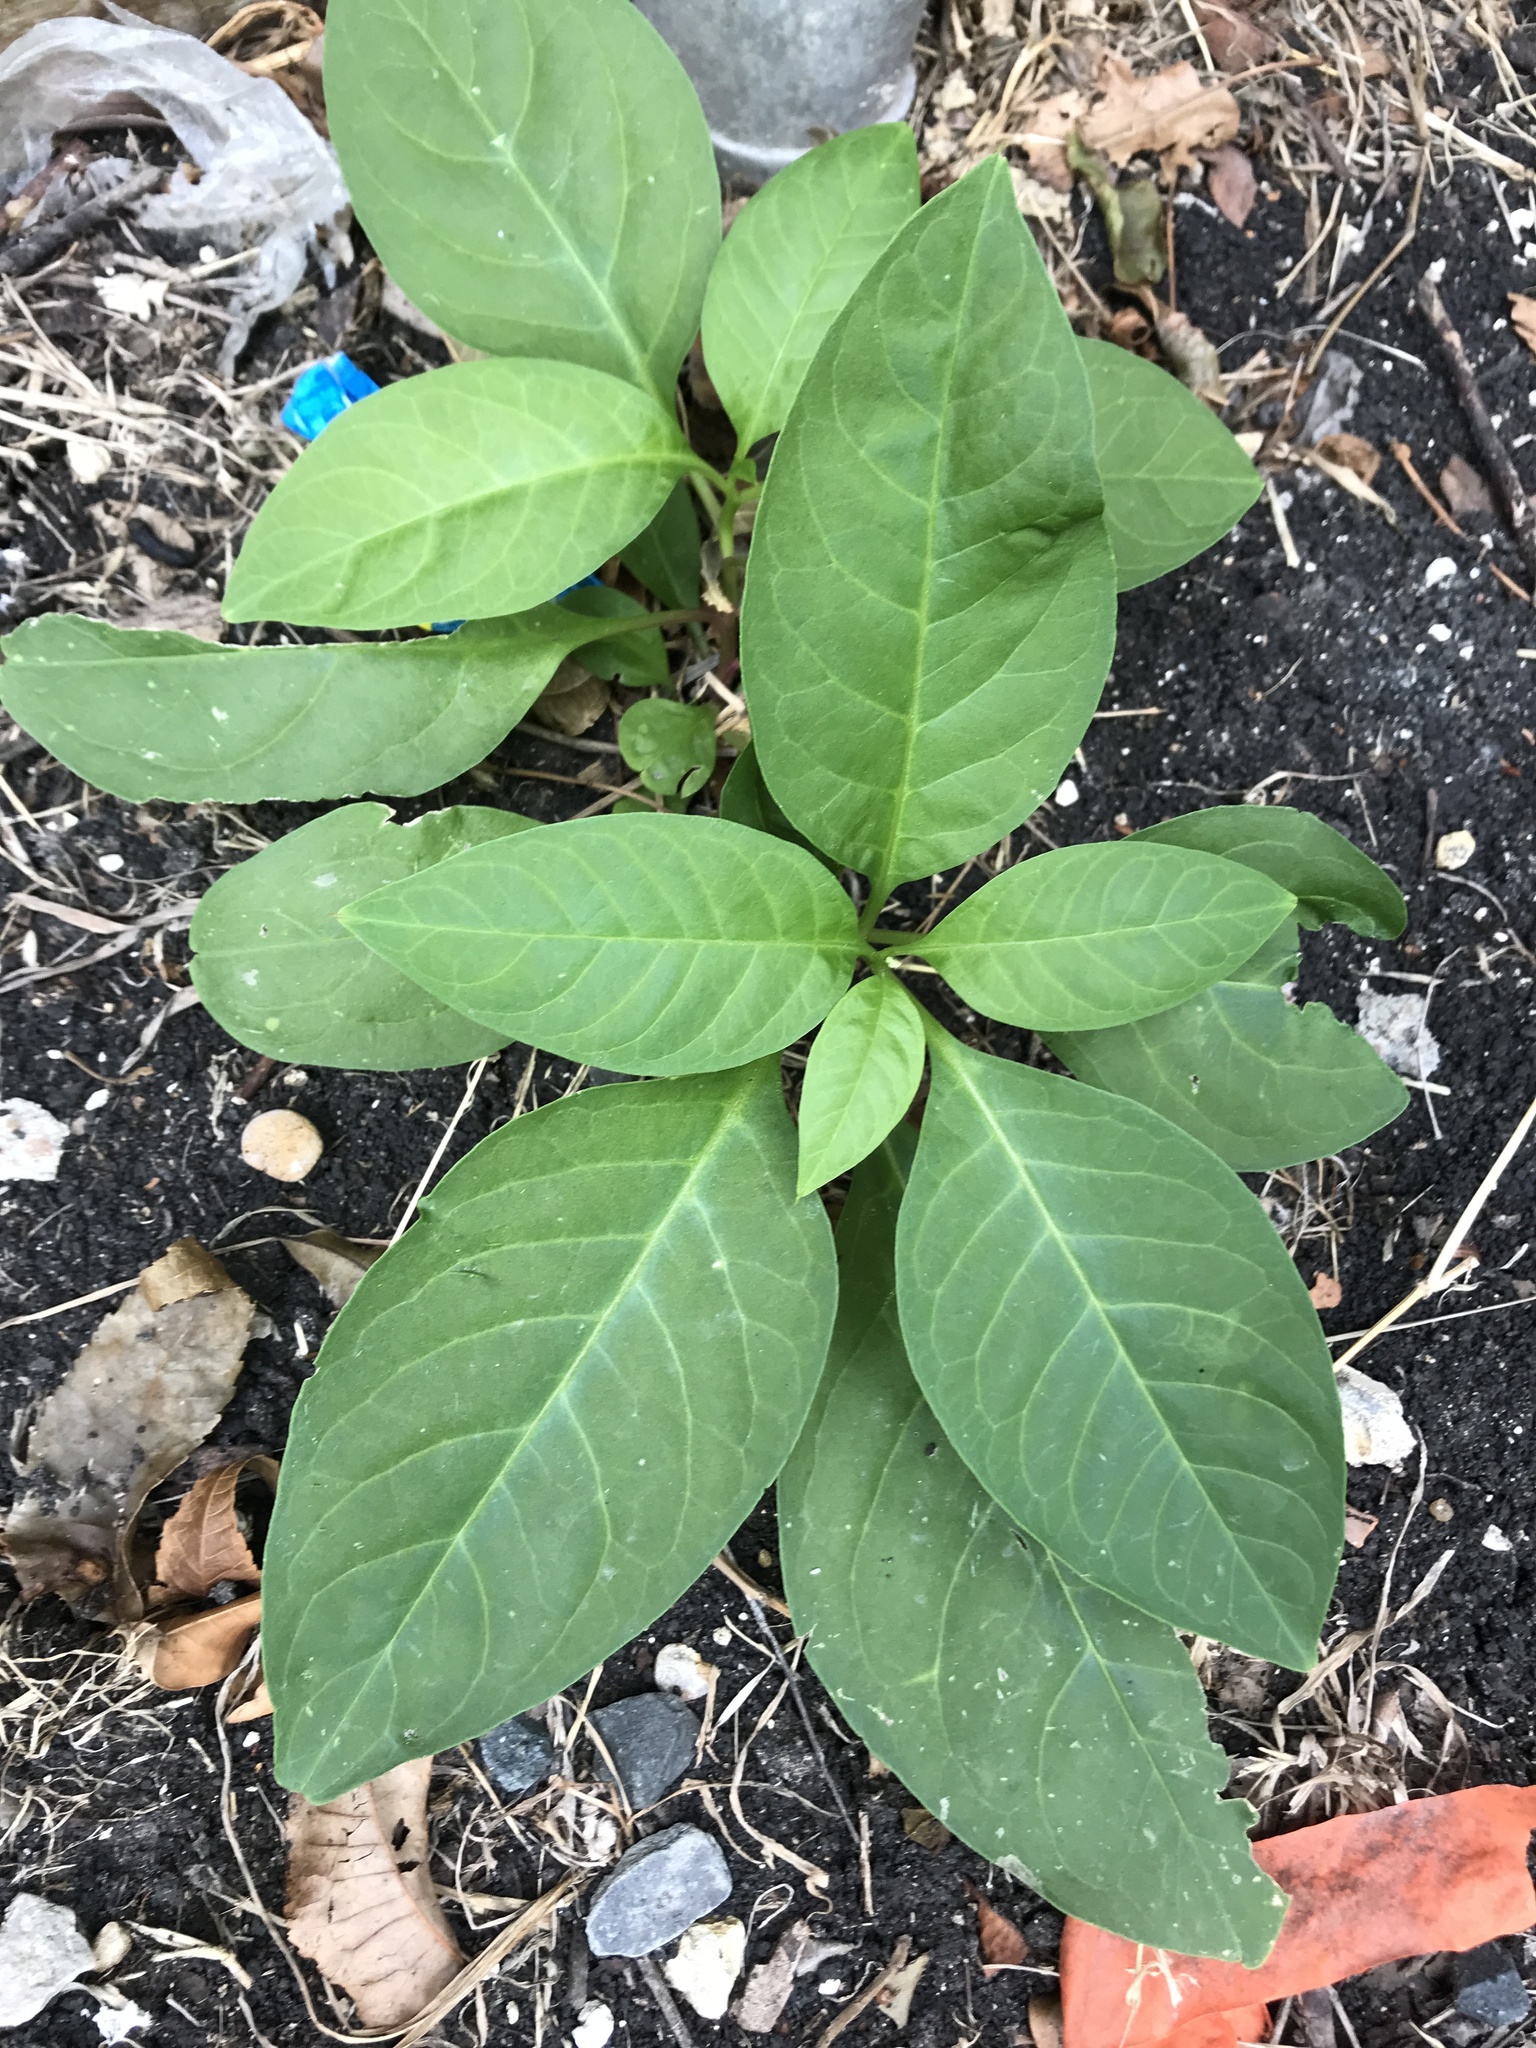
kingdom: Plantae
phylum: Tracheophyta
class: Magnoliopsida
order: Caryophyllales
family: Phytolaccaceae
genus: Phytolacca
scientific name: Phytolacca americana
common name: American pokeweed
